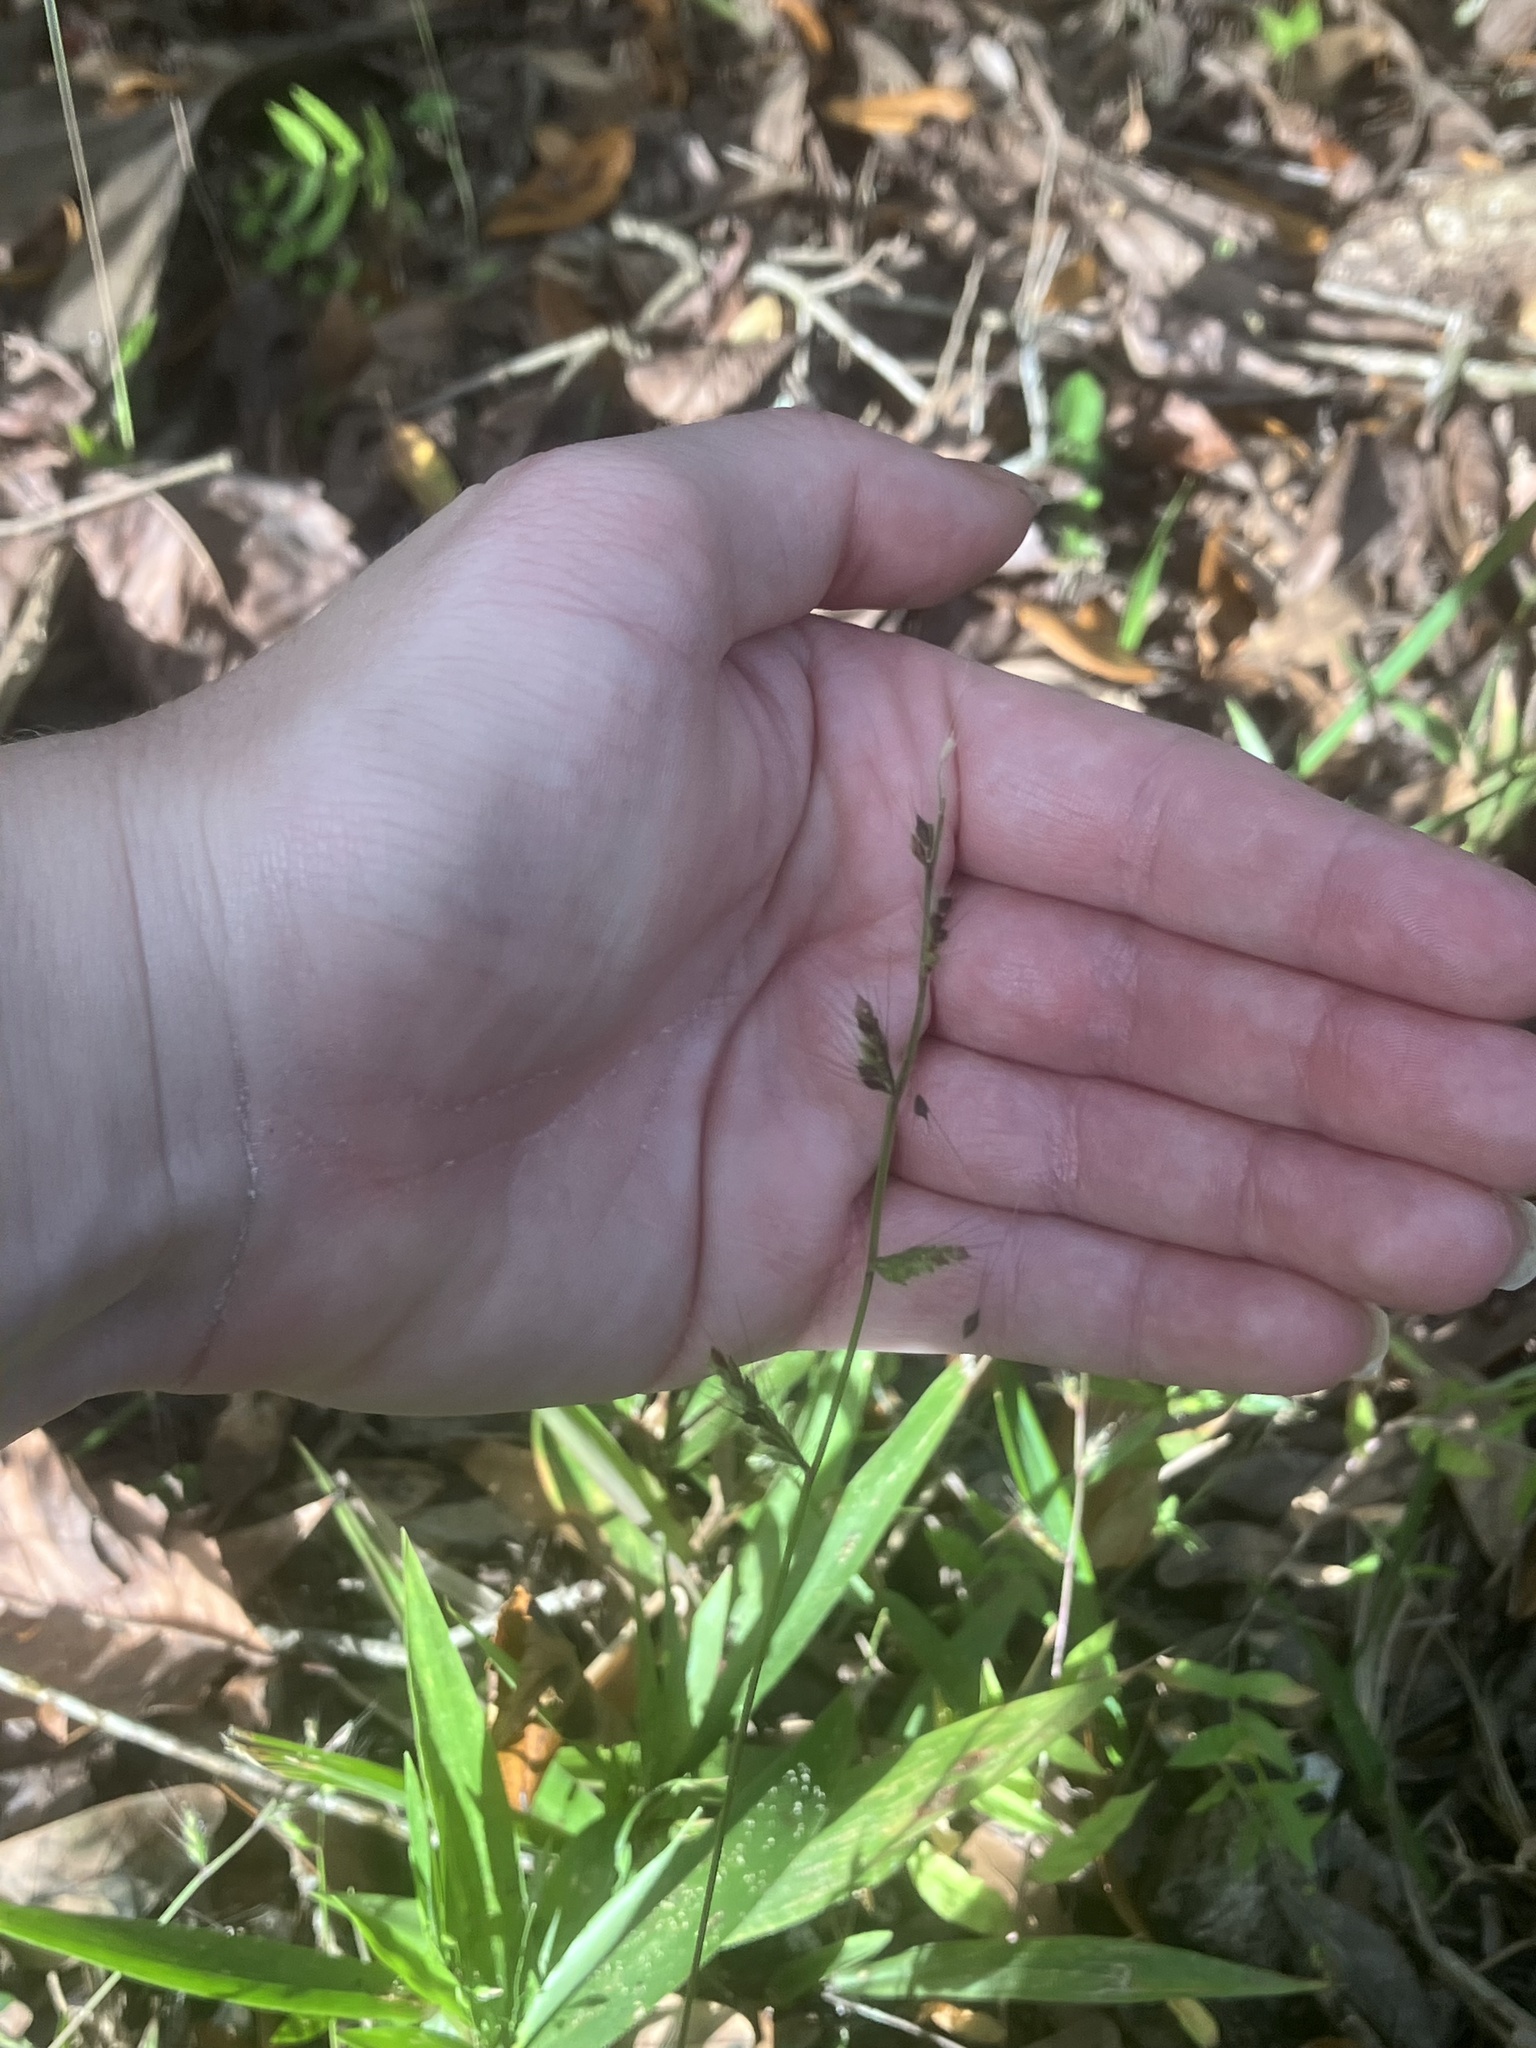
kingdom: Plantae
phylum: Tracheophyta
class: Liliopsida
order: Poales
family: Poaceae
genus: Oplismenus
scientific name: Oplismenus
